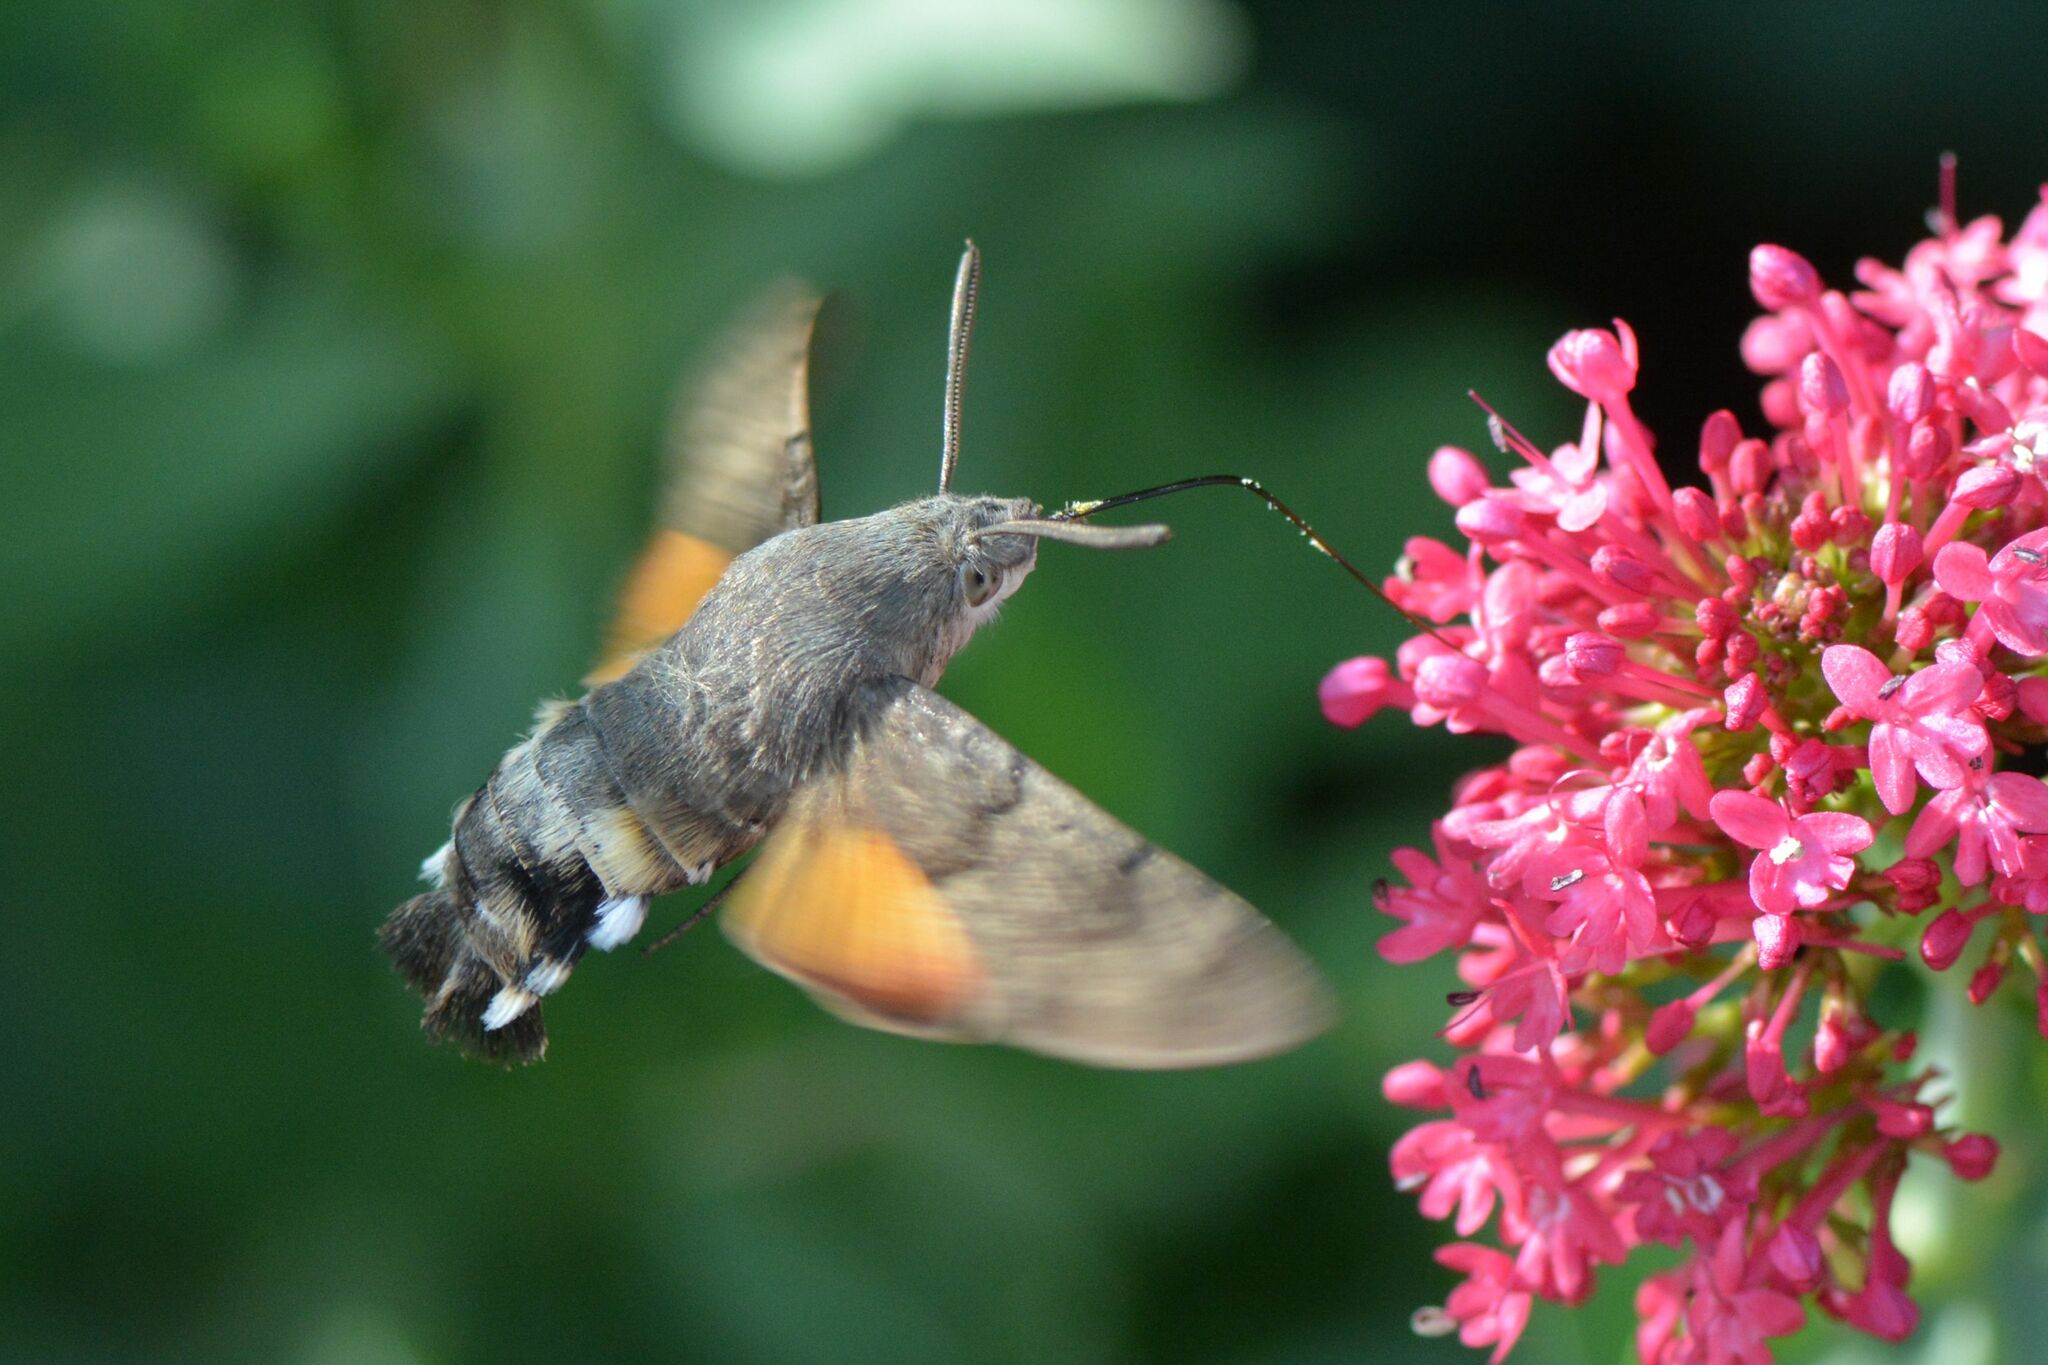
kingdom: Animalia
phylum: Arthropoda
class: Insecta
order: Lepidoptera
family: Sphingidae
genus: Macroglossum
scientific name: Macroglossum stellatarum
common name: Humming-bird hawk-moth
